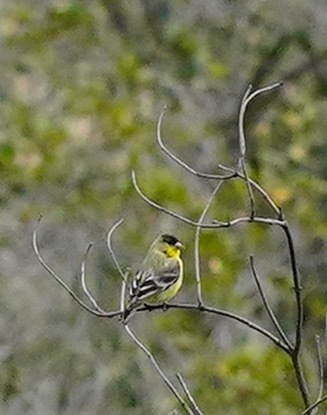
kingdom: Animalia
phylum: Chordata
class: Aves
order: Passeriformes
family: Fringillidae
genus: Spinus
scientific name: Spinus psaltria
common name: Lesser goldfinch
